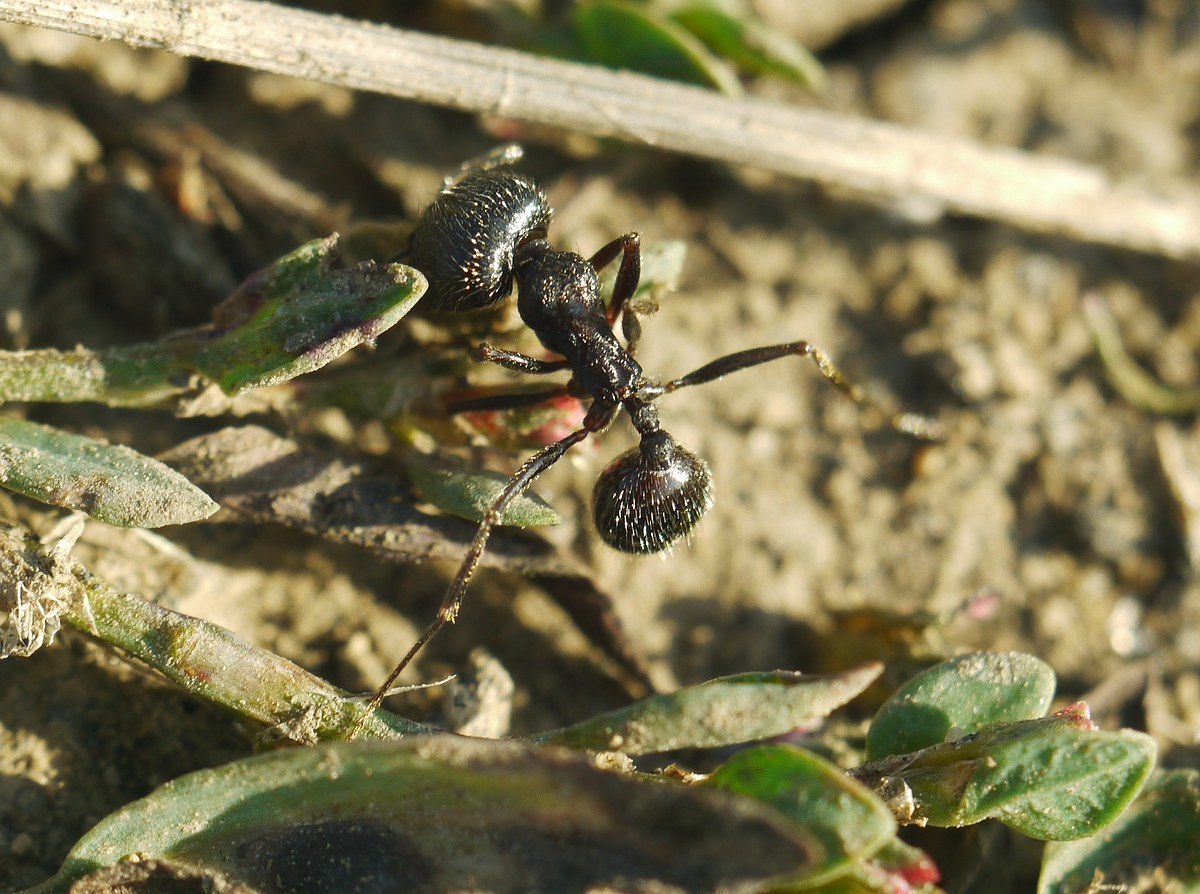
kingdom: Animalia
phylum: Arthropoda
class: Insecta
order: Hymenoptera
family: Formicidae
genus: Messor
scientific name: Messor structor
